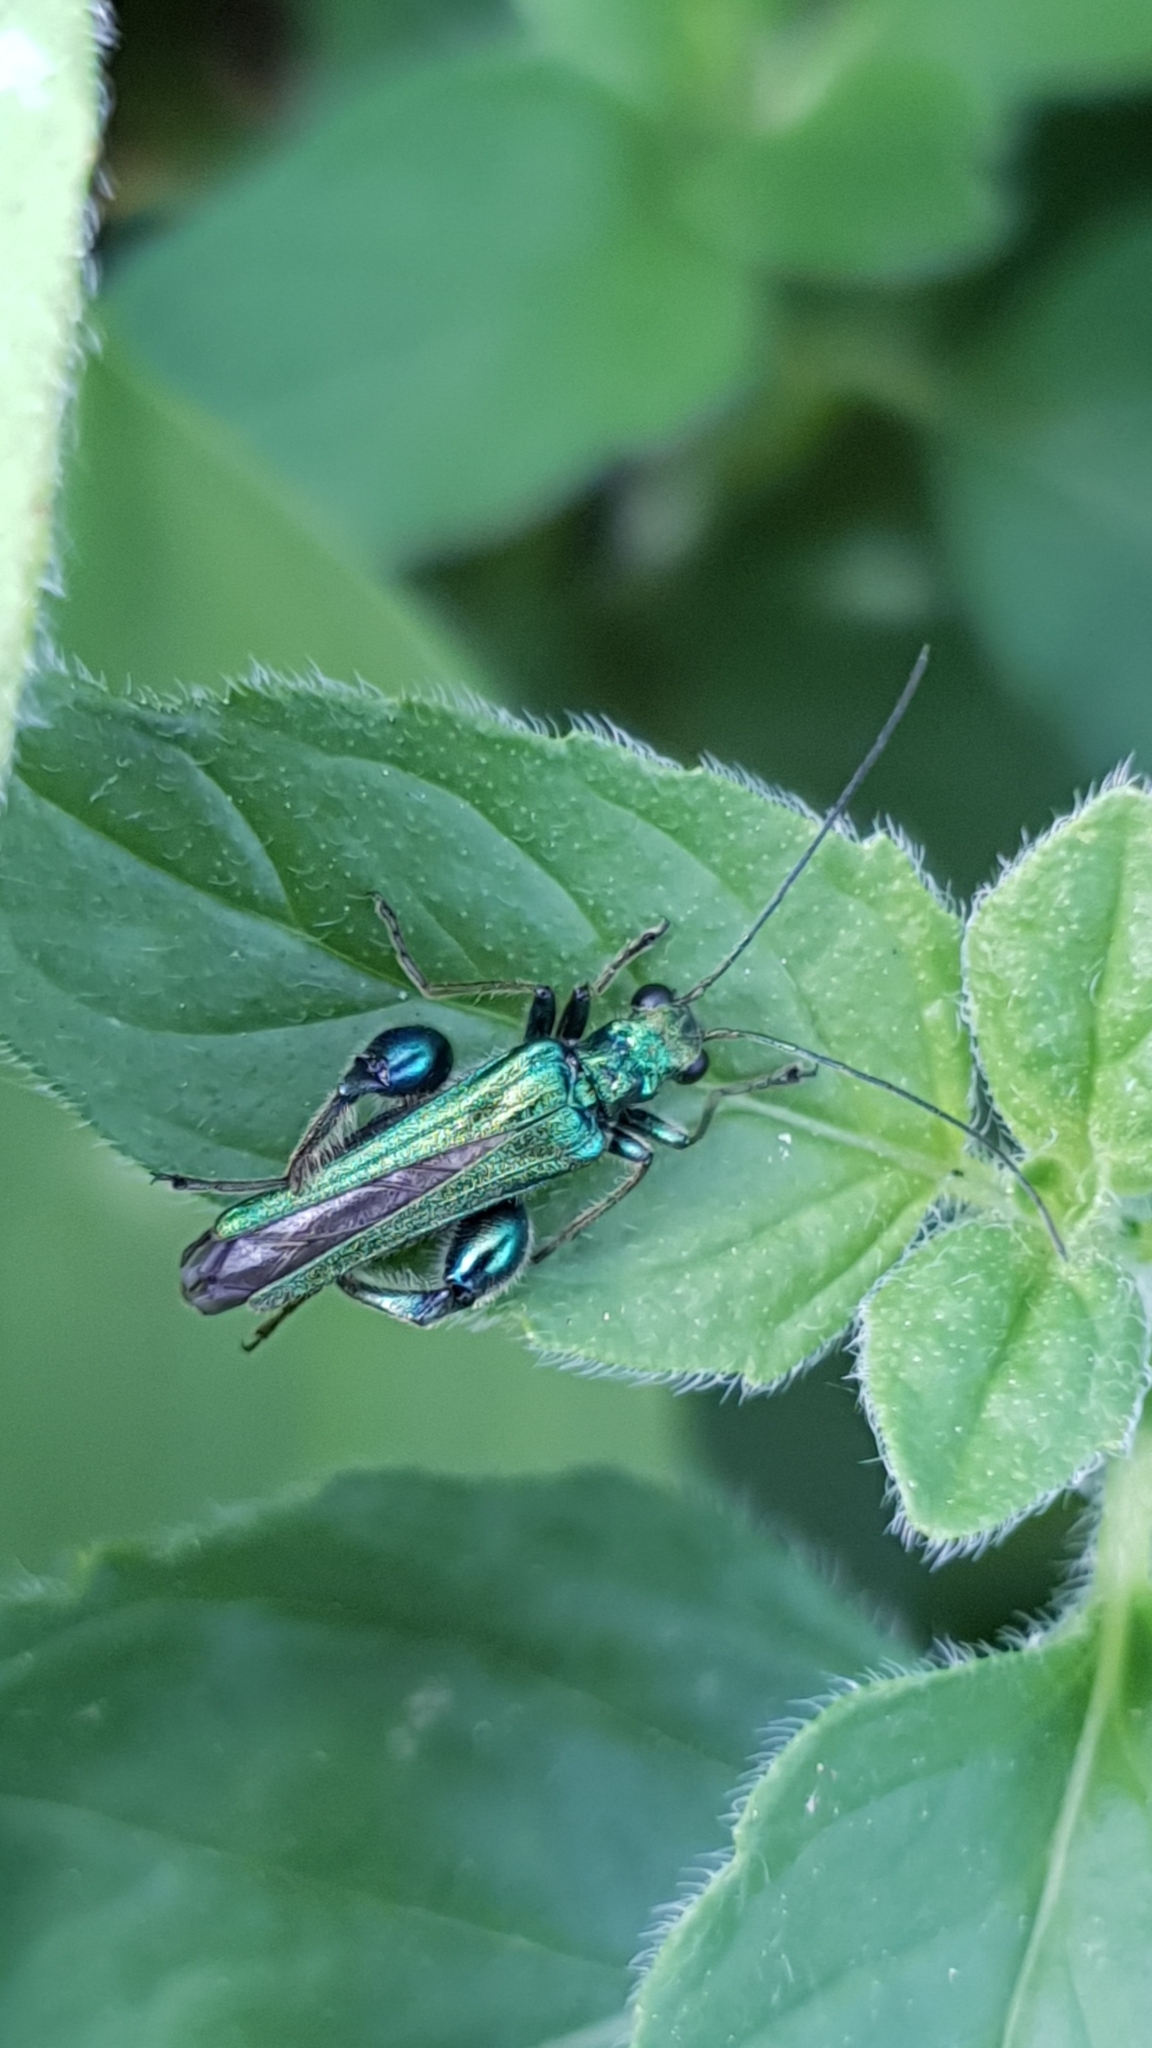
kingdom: Animalia
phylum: Arthropoda
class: Insecta
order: Coleoptera
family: Oedemeridae
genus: Oedemera
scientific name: Oedemera nobilis
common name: Swollen-thighed beetle
